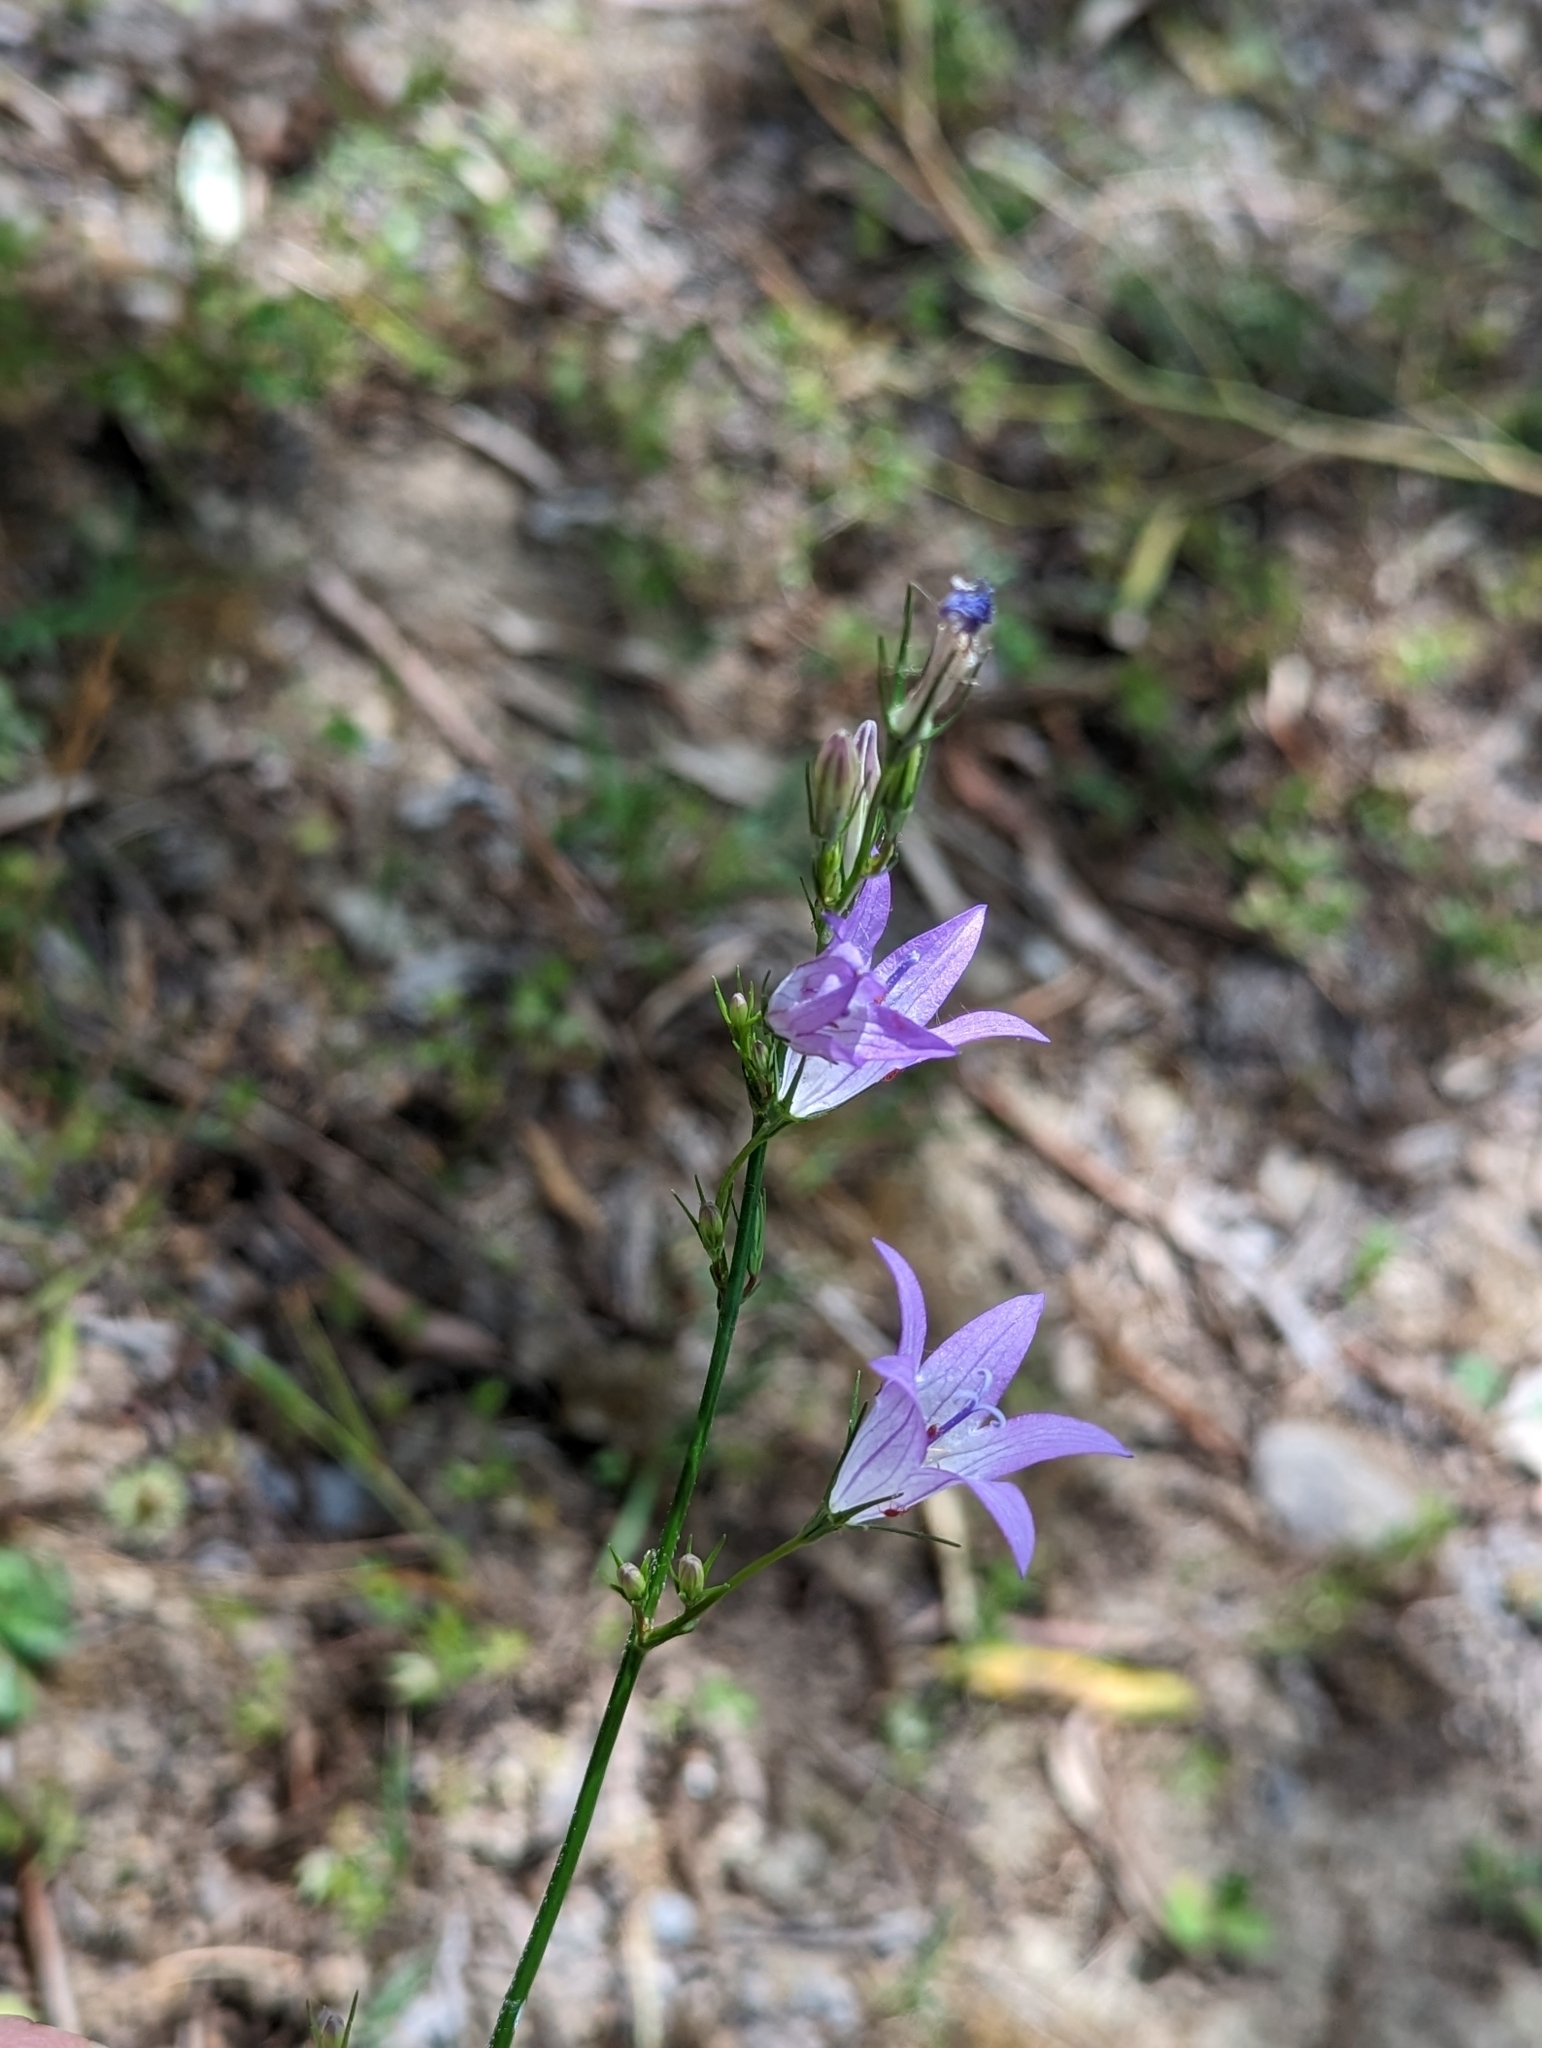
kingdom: Plantae
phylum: Tracheophyta
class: Magnoliopsida
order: Asterales
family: Campanulaceae
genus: Campanula
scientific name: Campanula rapunculus
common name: Rampion bellflower
